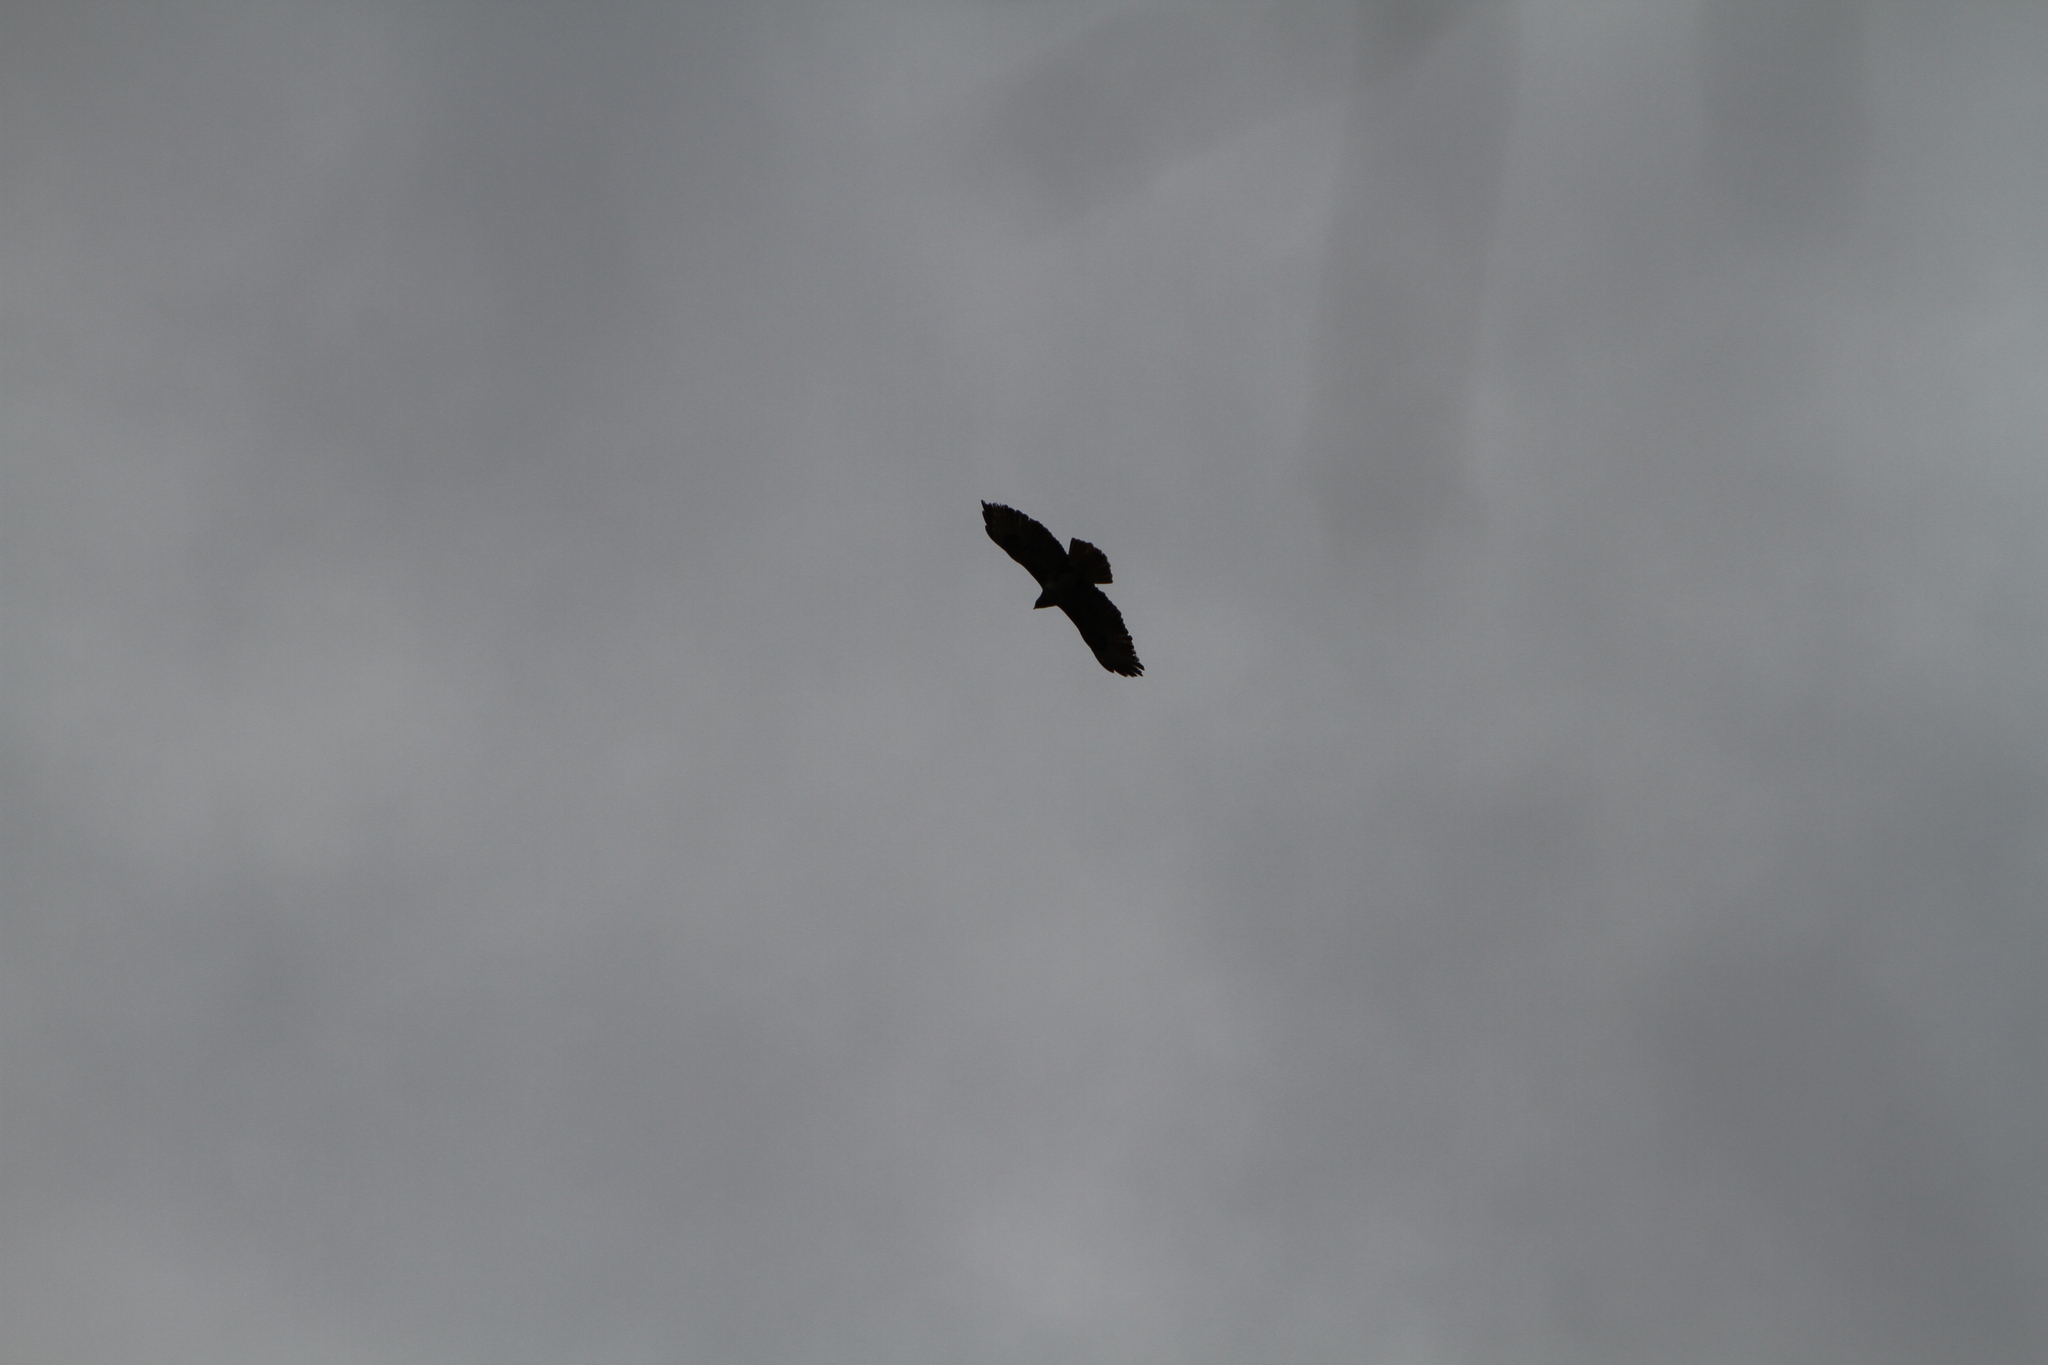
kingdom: Animalia
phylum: Chordata
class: Aves
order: Accipitriformes
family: Accipitridae
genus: Buteo
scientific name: Buteo buteo
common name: Common buzzard
